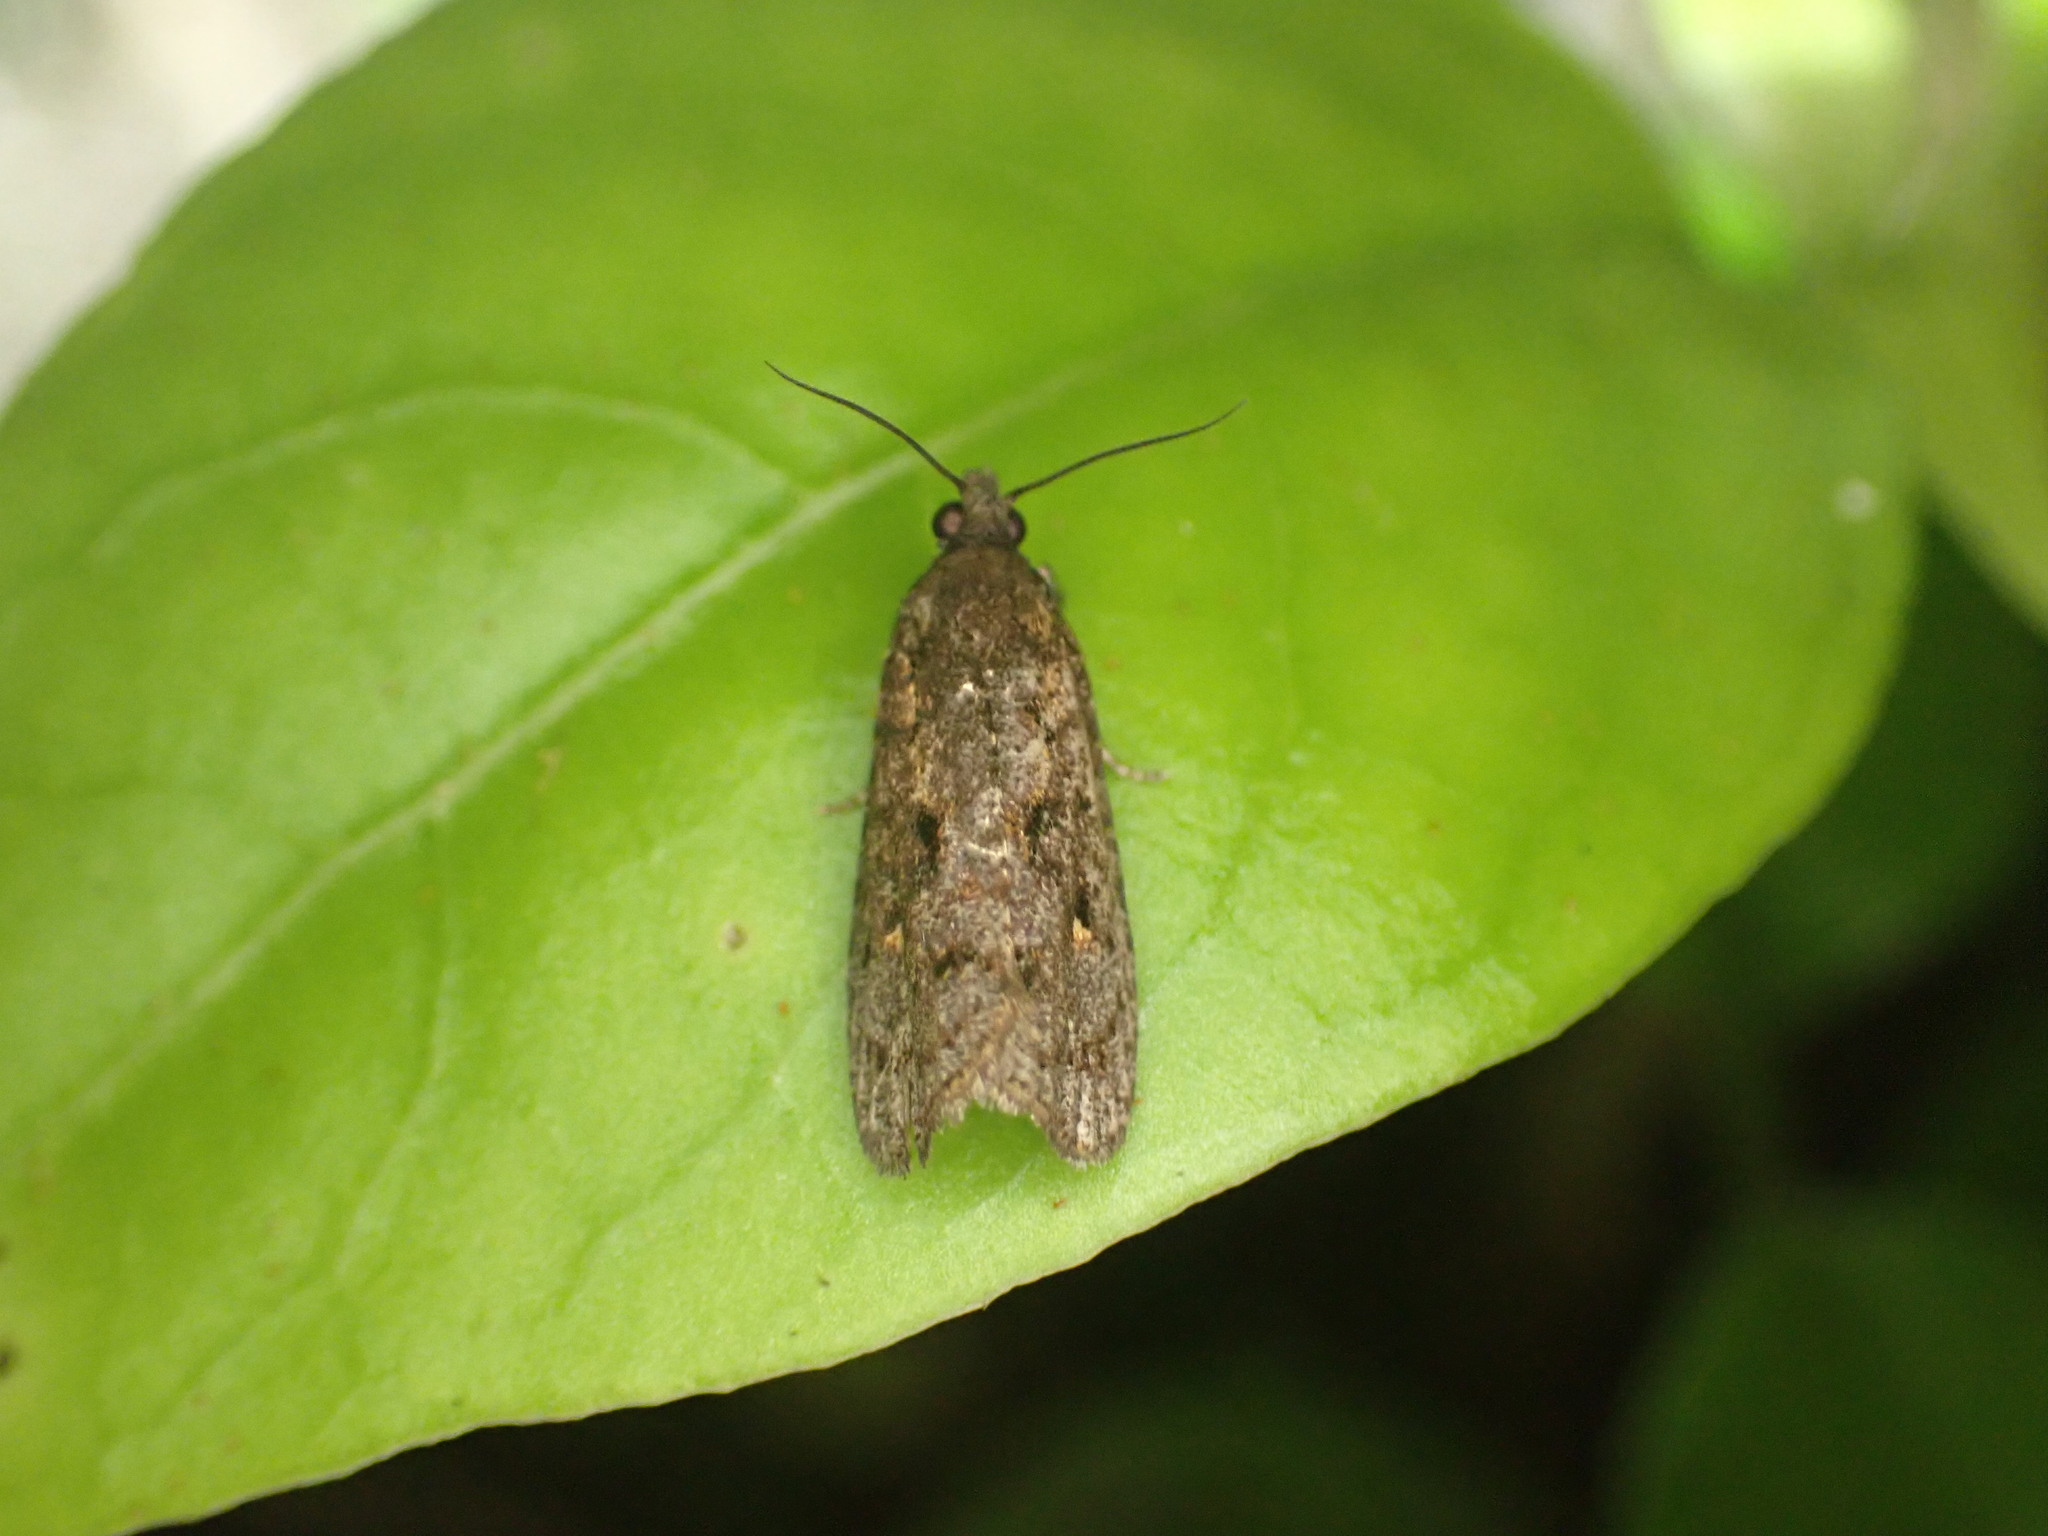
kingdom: Animalia
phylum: Arthropoda
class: Insecta
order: Lepidoptera
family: Tortricidae
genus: Cryptaspasma
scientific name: Cryptaspasma querula
